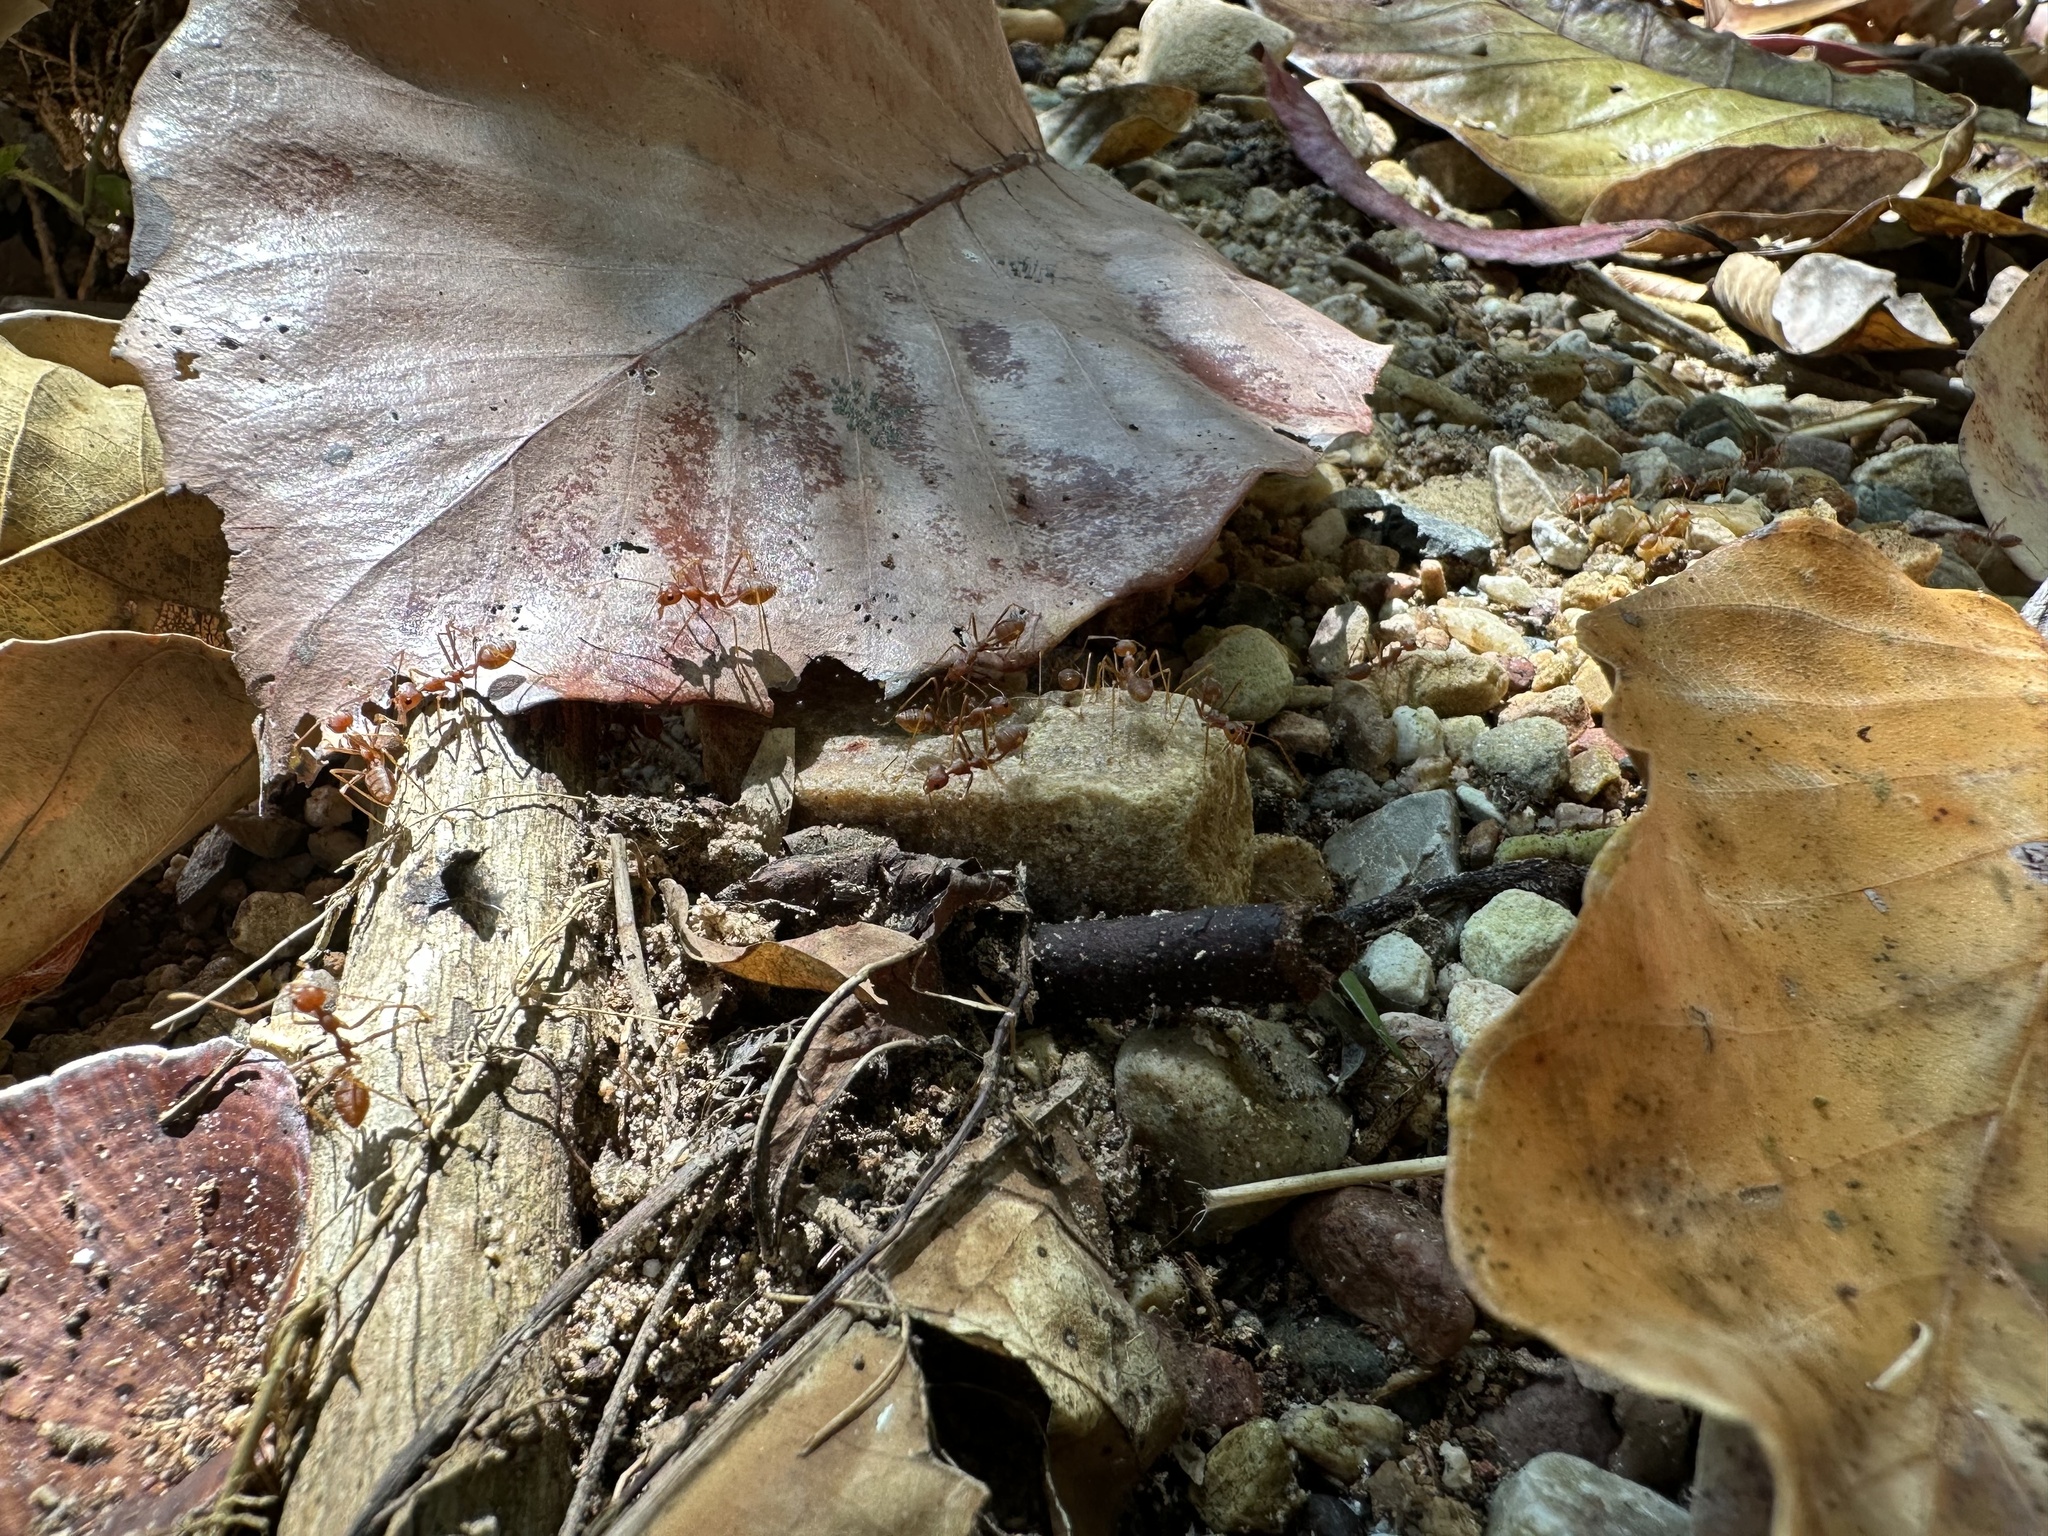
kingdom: Animalia
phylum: Arthropoda
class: Insecta
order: Hymenoptera
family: Formicidae
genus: Oecophylla
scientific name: Oecophylla smaragdina
